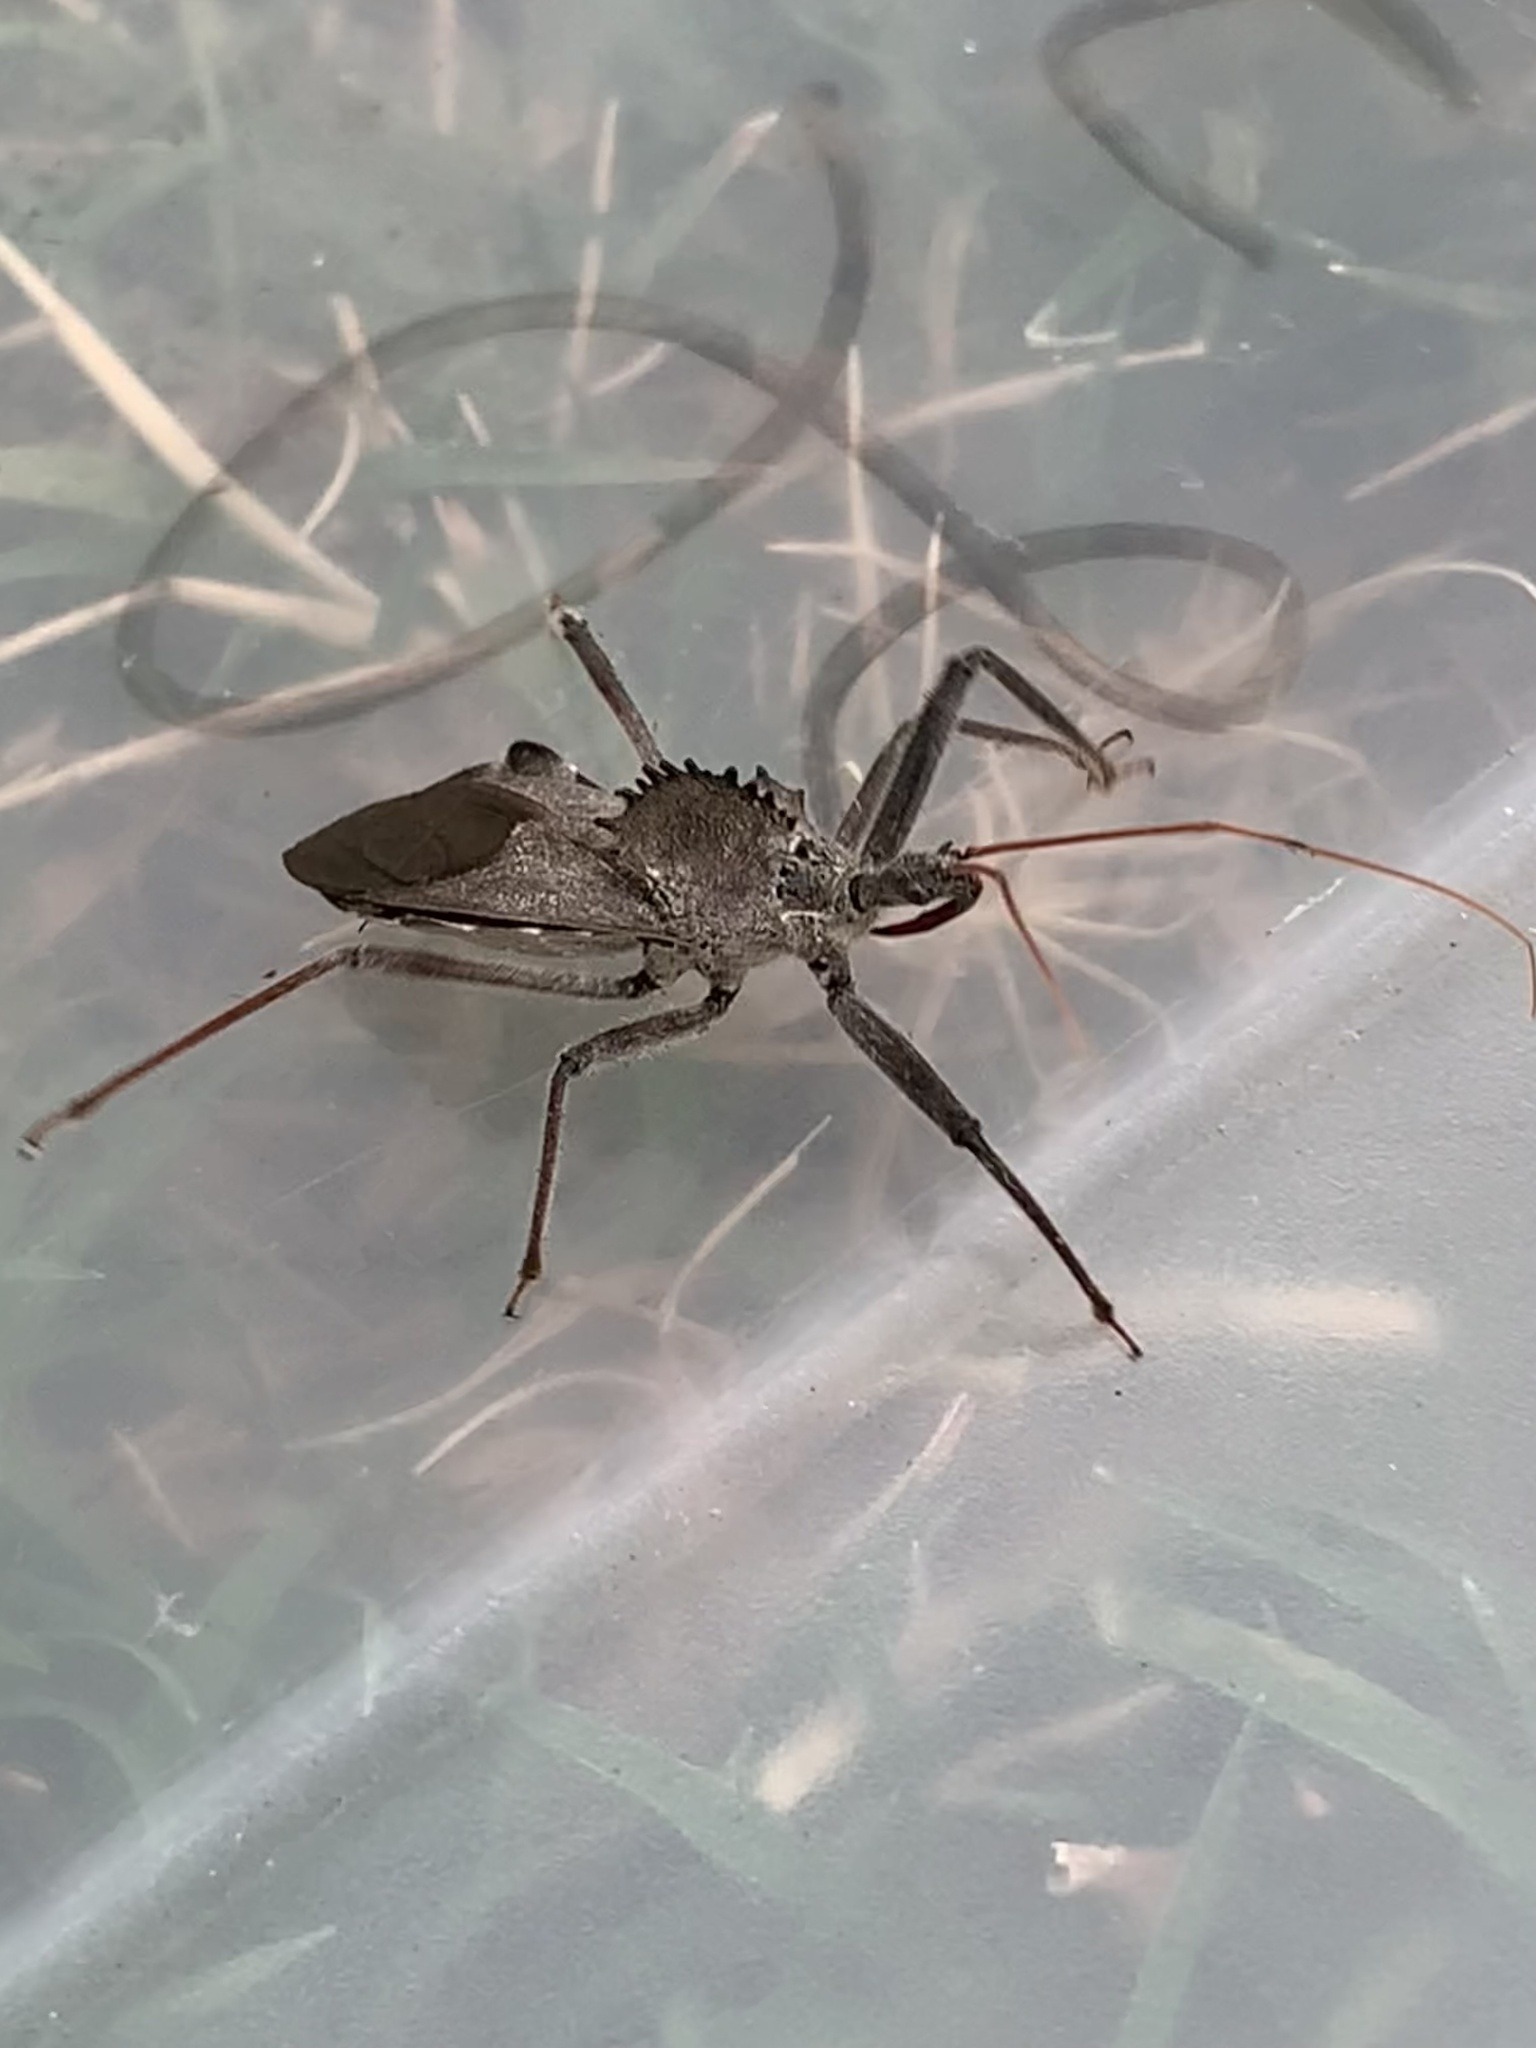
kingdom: Animalia
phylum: Arthropoda
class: Insecta
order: Hemiptera
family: Reduviidae
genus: Arilus
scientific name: Arilus cristatus
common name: North american wheel bug
